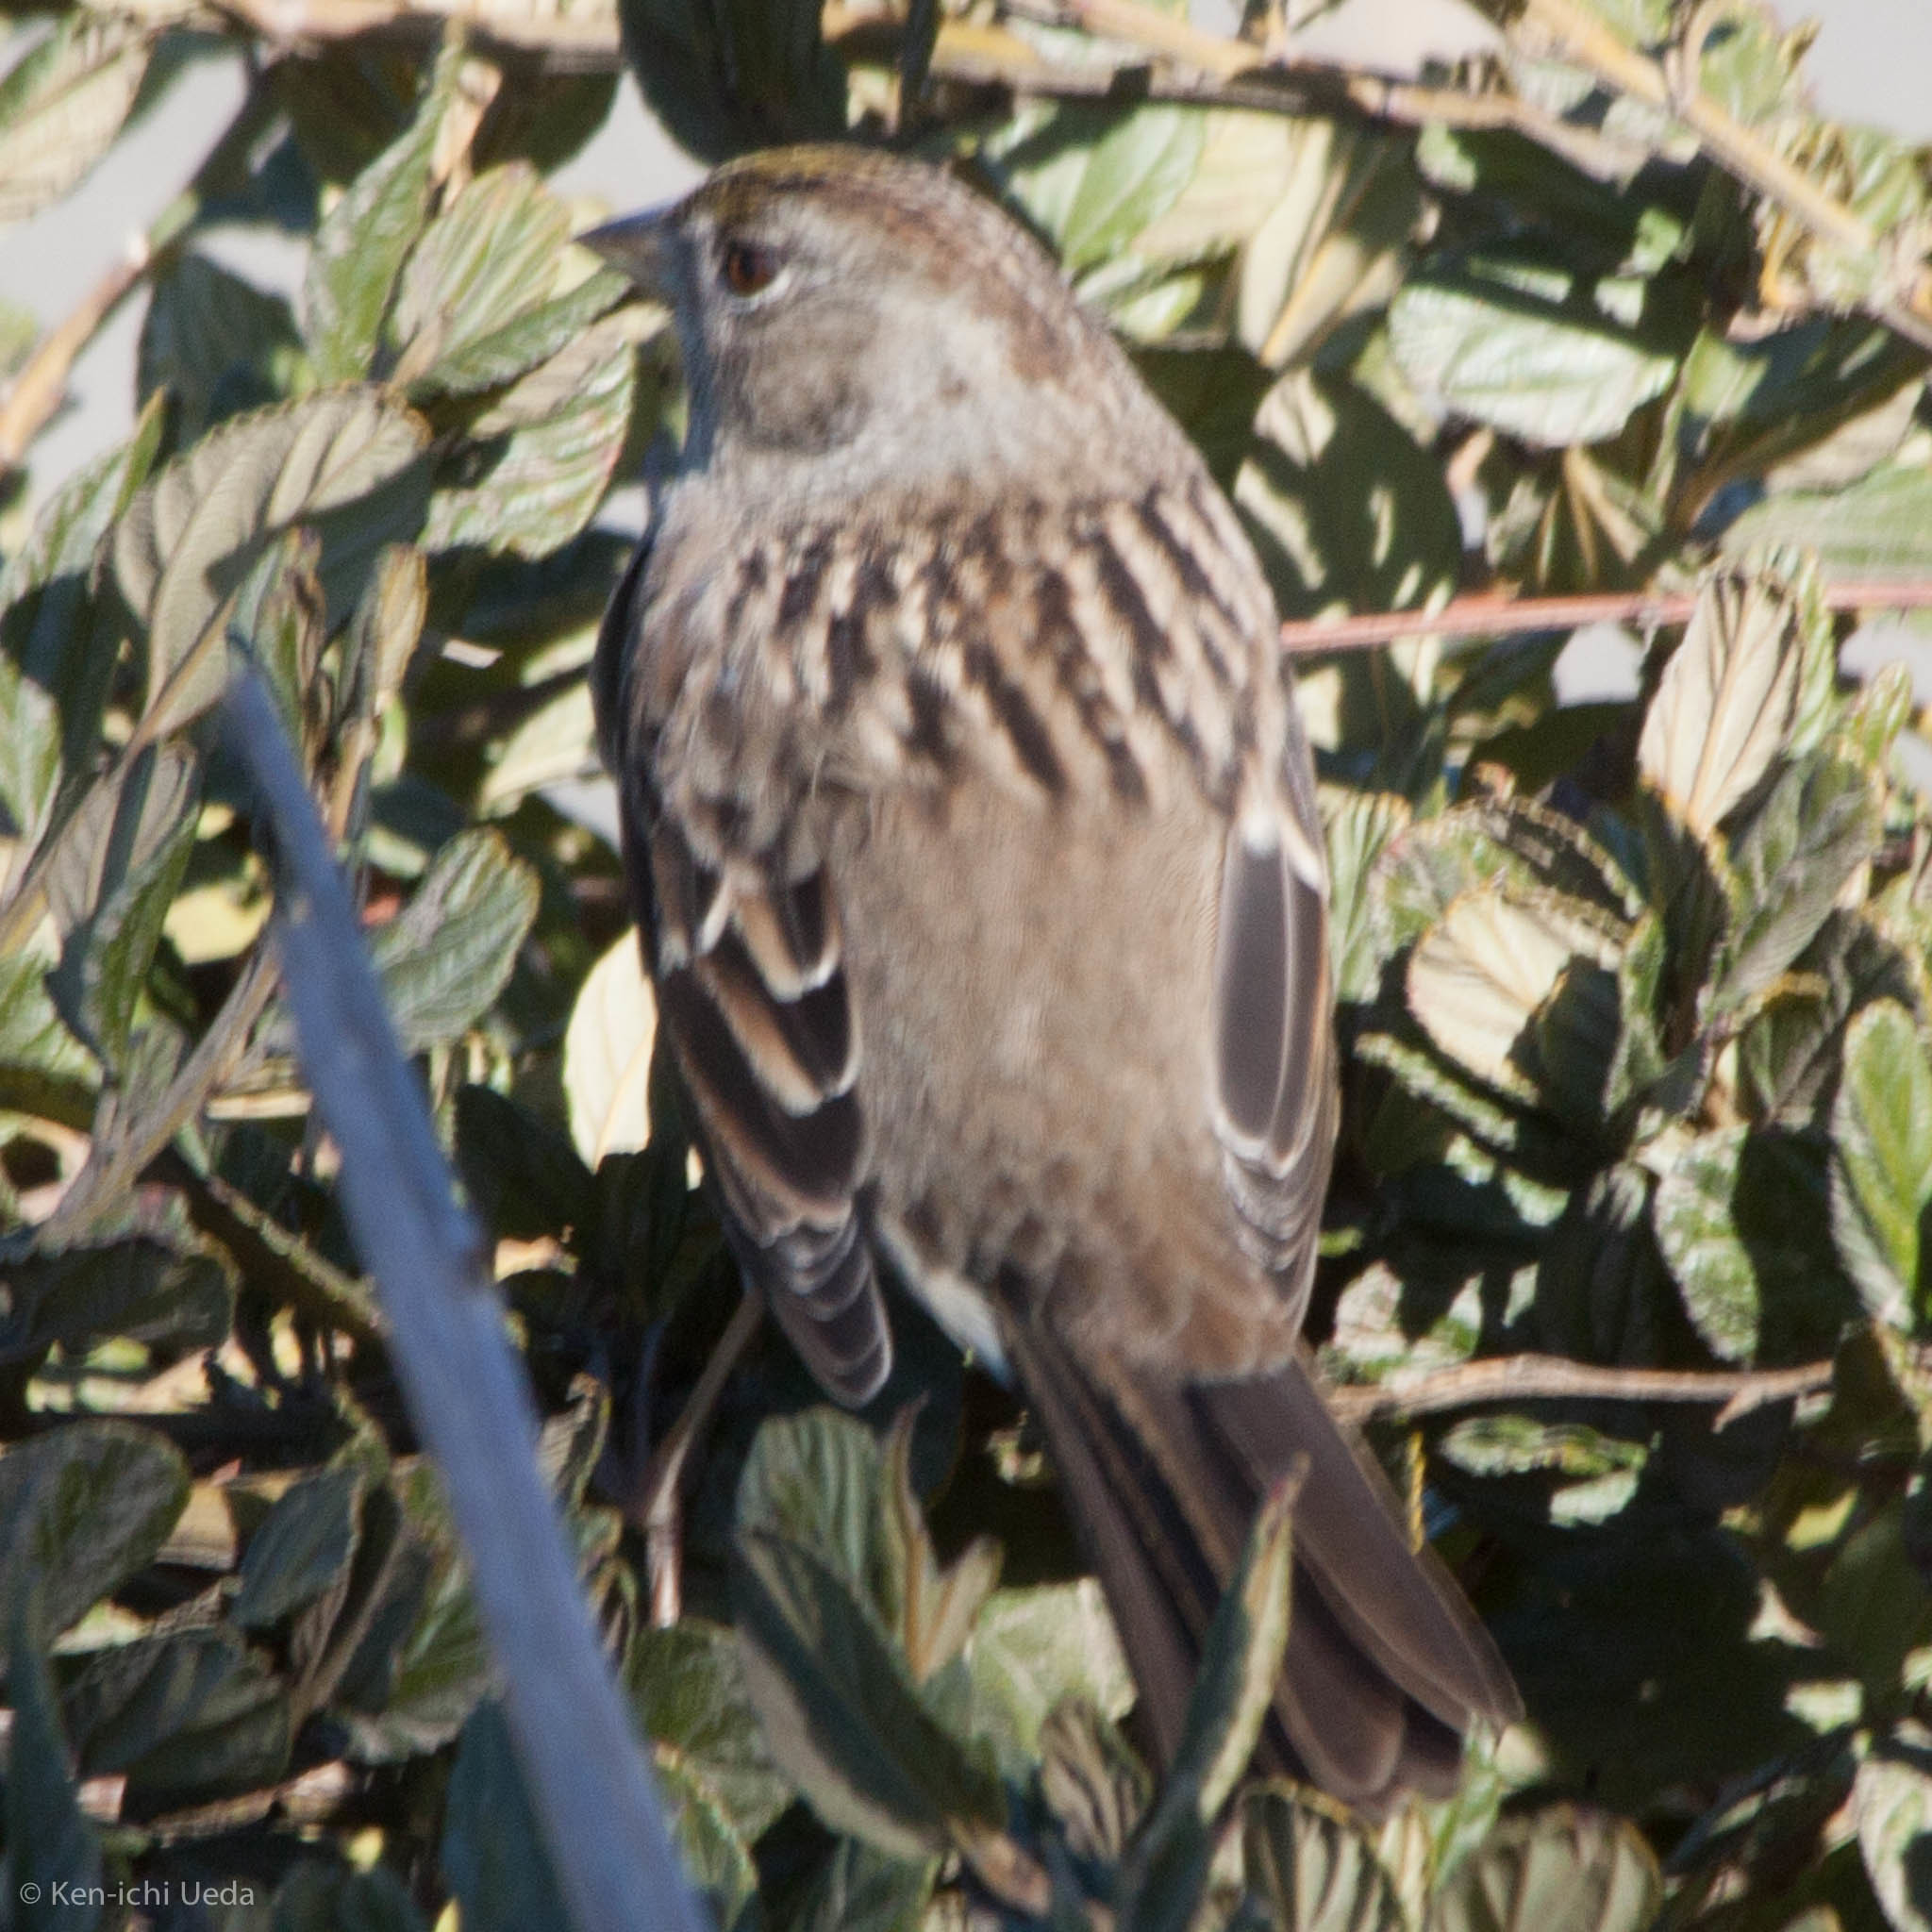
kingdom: Animalia
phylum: Chordata
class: Aves
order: Passeriformes
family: Passerellidae
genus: Zonotrichia
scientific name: Zonotrichia atricapilla
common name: Golden-crowned sparrow
